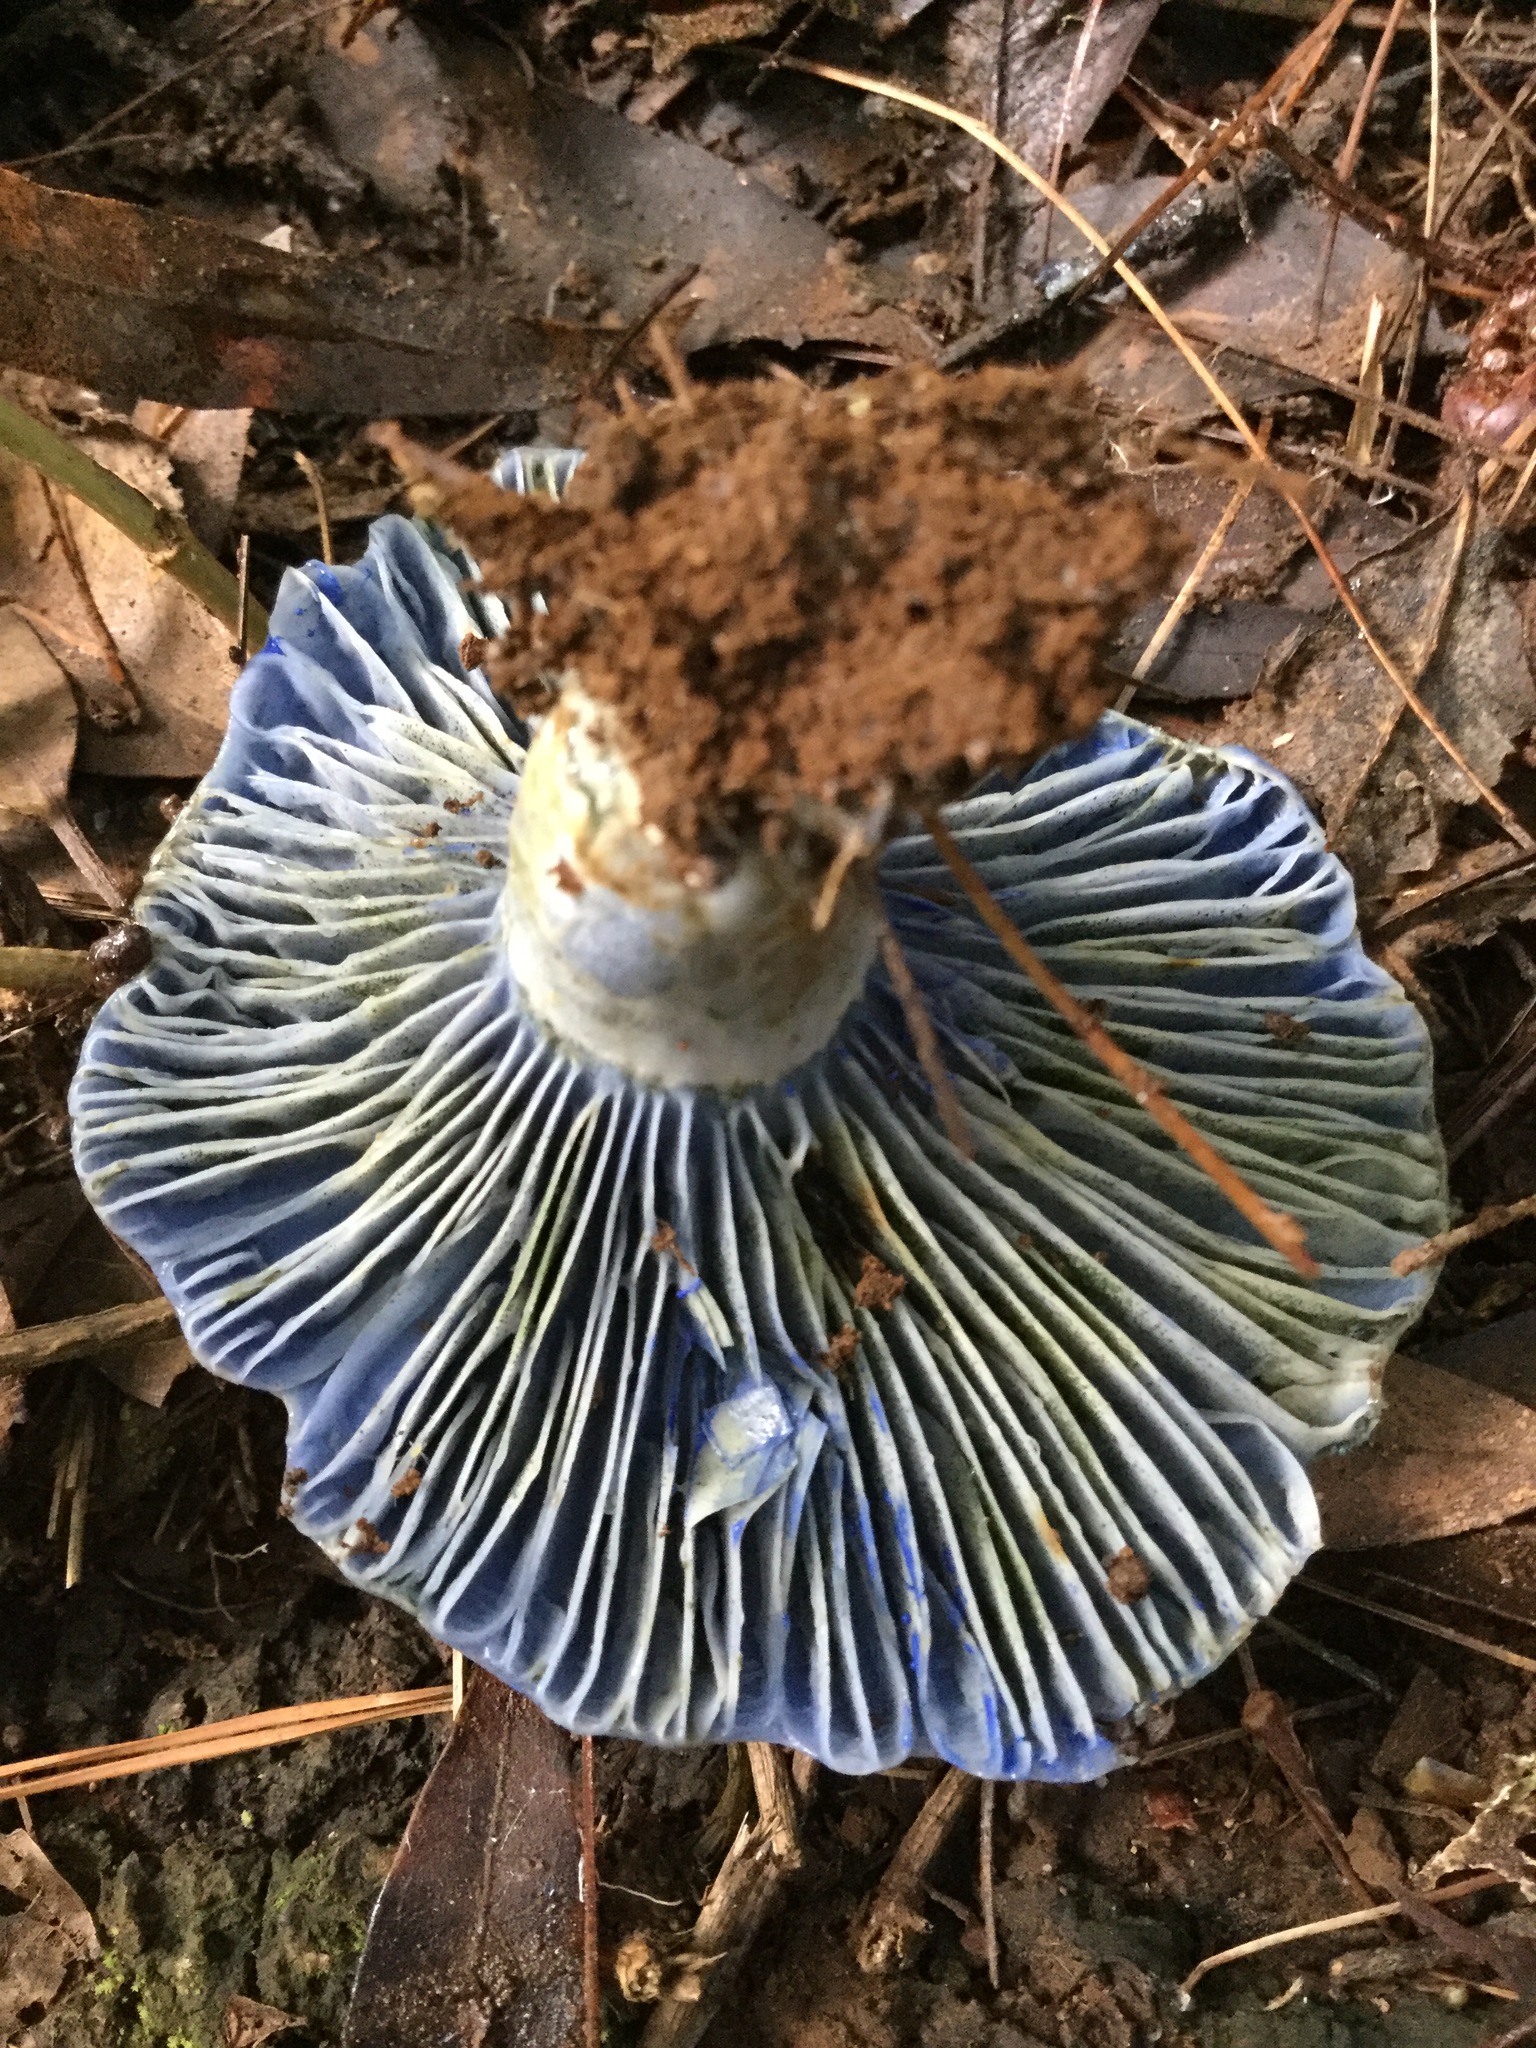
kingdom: Fungi
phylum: Basidiomycota
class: Agaricomycetes
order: Russulales
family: Russulaceae
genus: Lactarius
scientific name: Lactarius indigo
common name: Indigo milk cap
